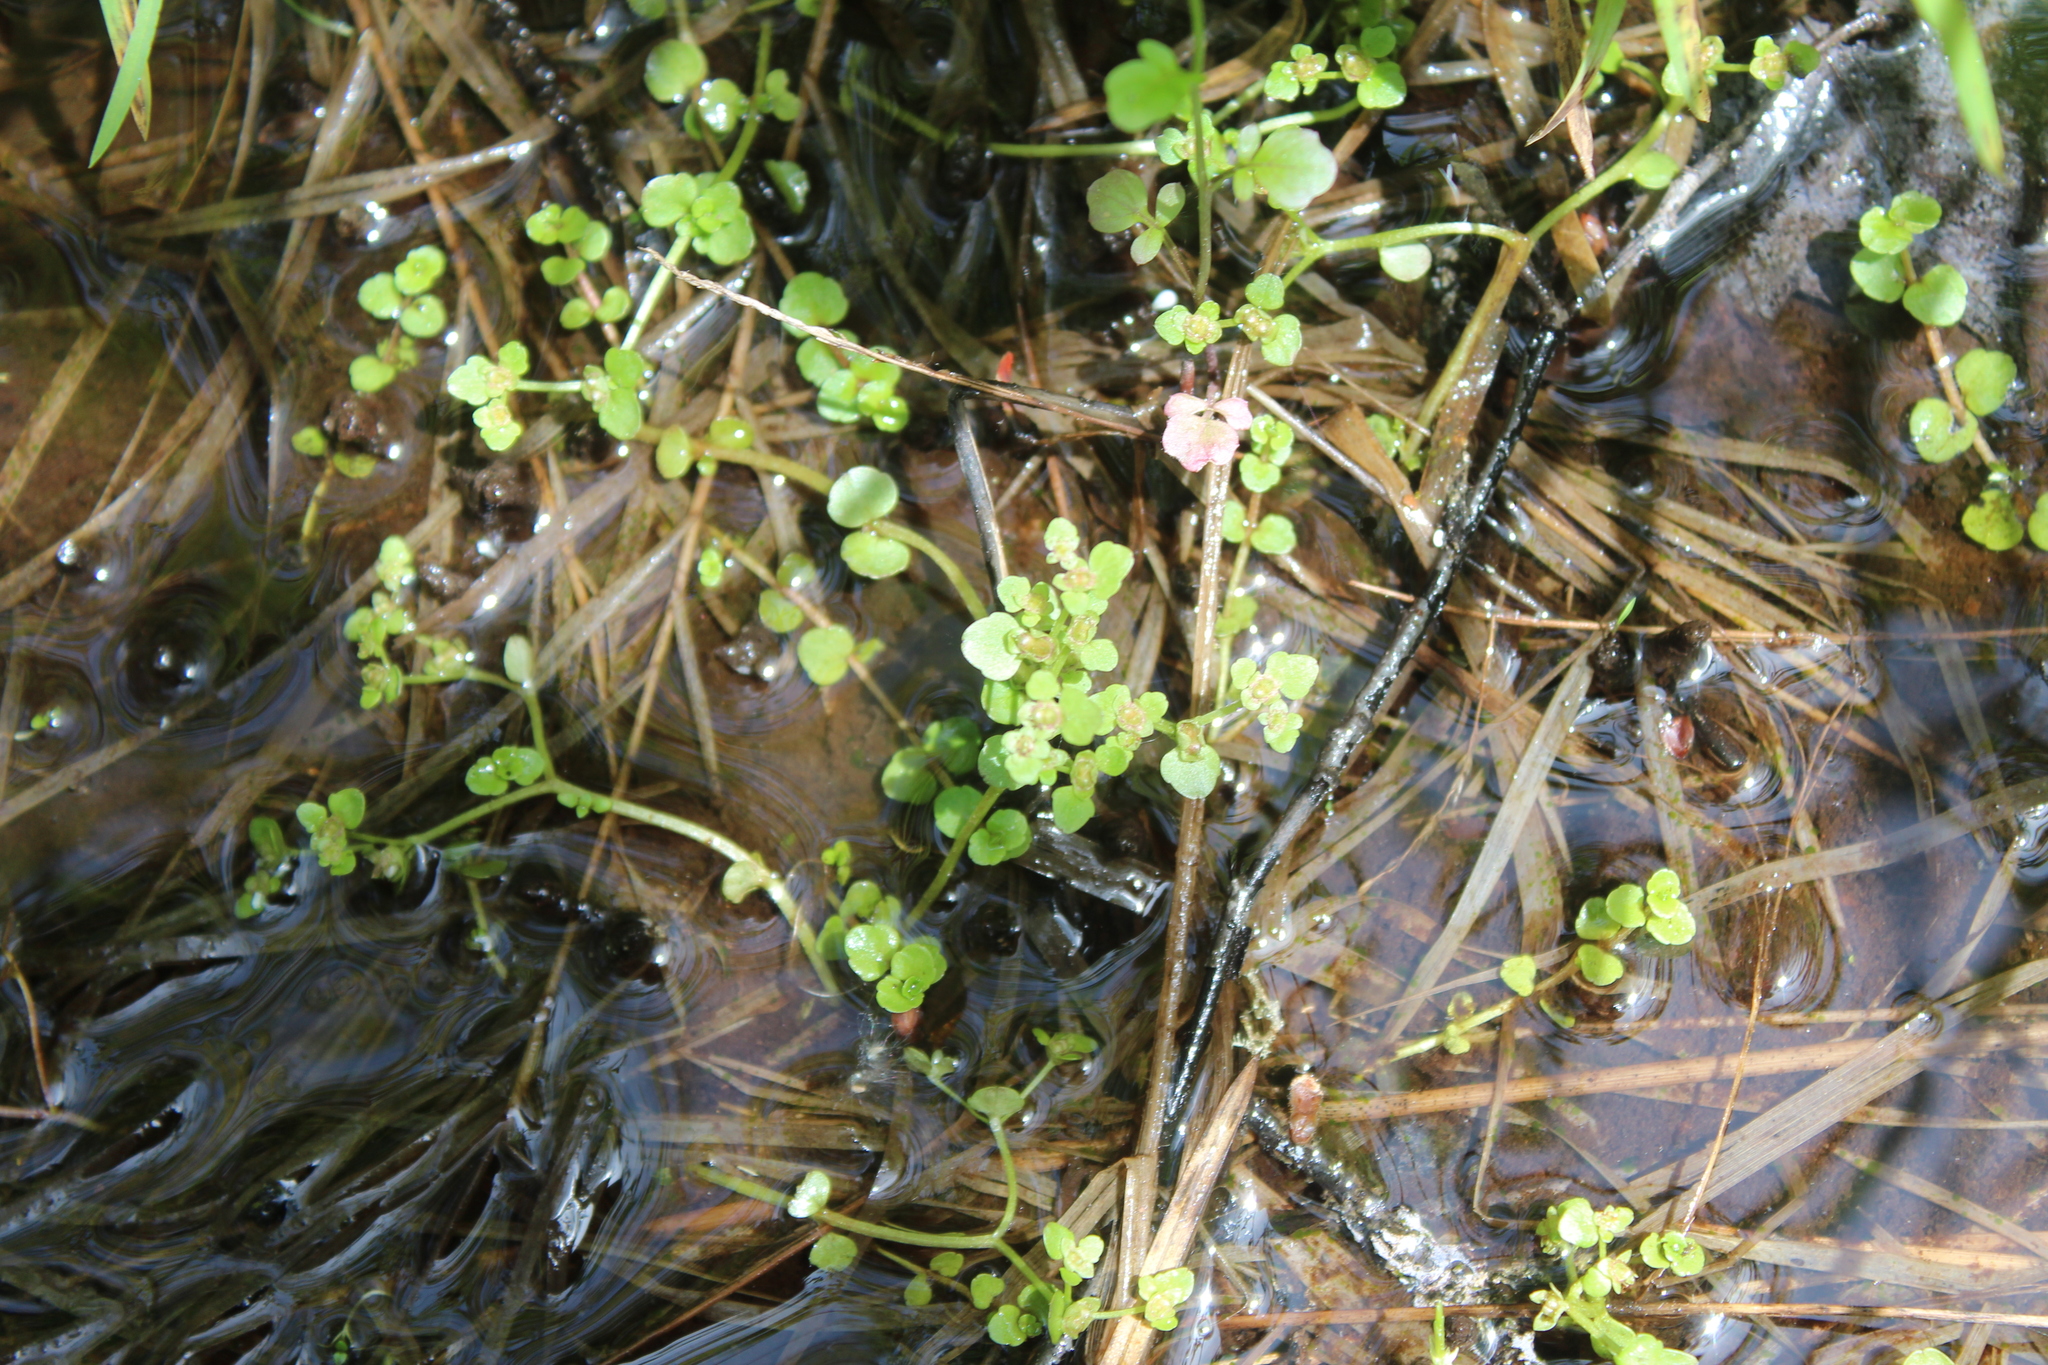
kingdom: Plantae
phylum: Tracheophyta
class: Magnoliopsida
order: Saxifragales
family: Saxifragaceae
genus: Chrysosplenium
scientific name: Chrysosplenium americanum
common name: American golden-saxifrage
